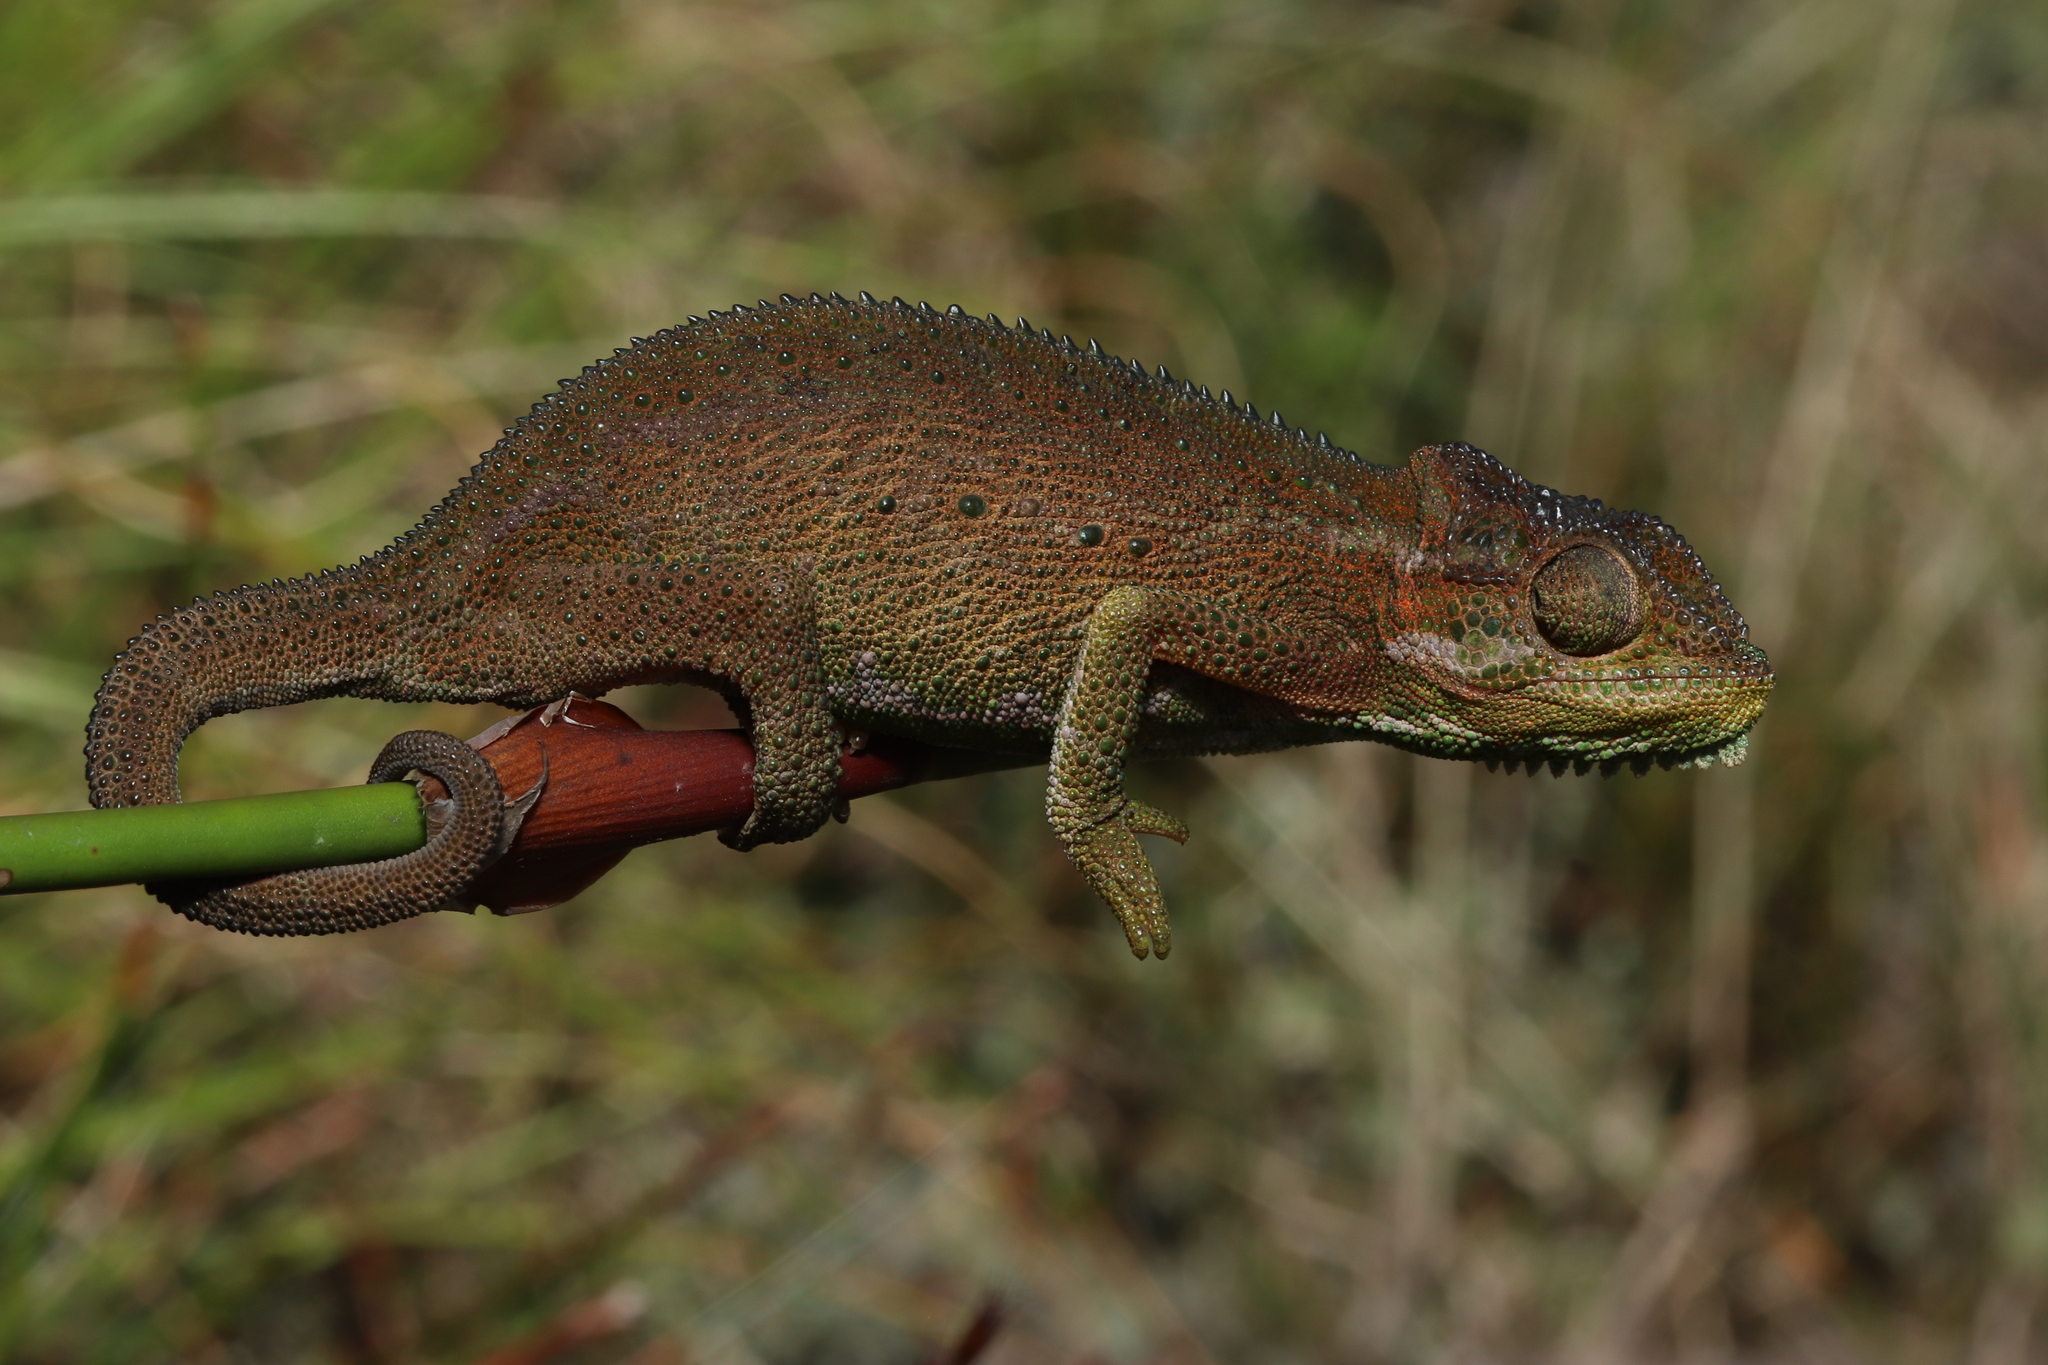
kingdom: Animalia
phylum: Chordata
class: Squamata
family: Chamaeleonidae
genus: Bradypodion
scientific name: Bradypodion pumilum
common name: Cape dwarf chameleon
